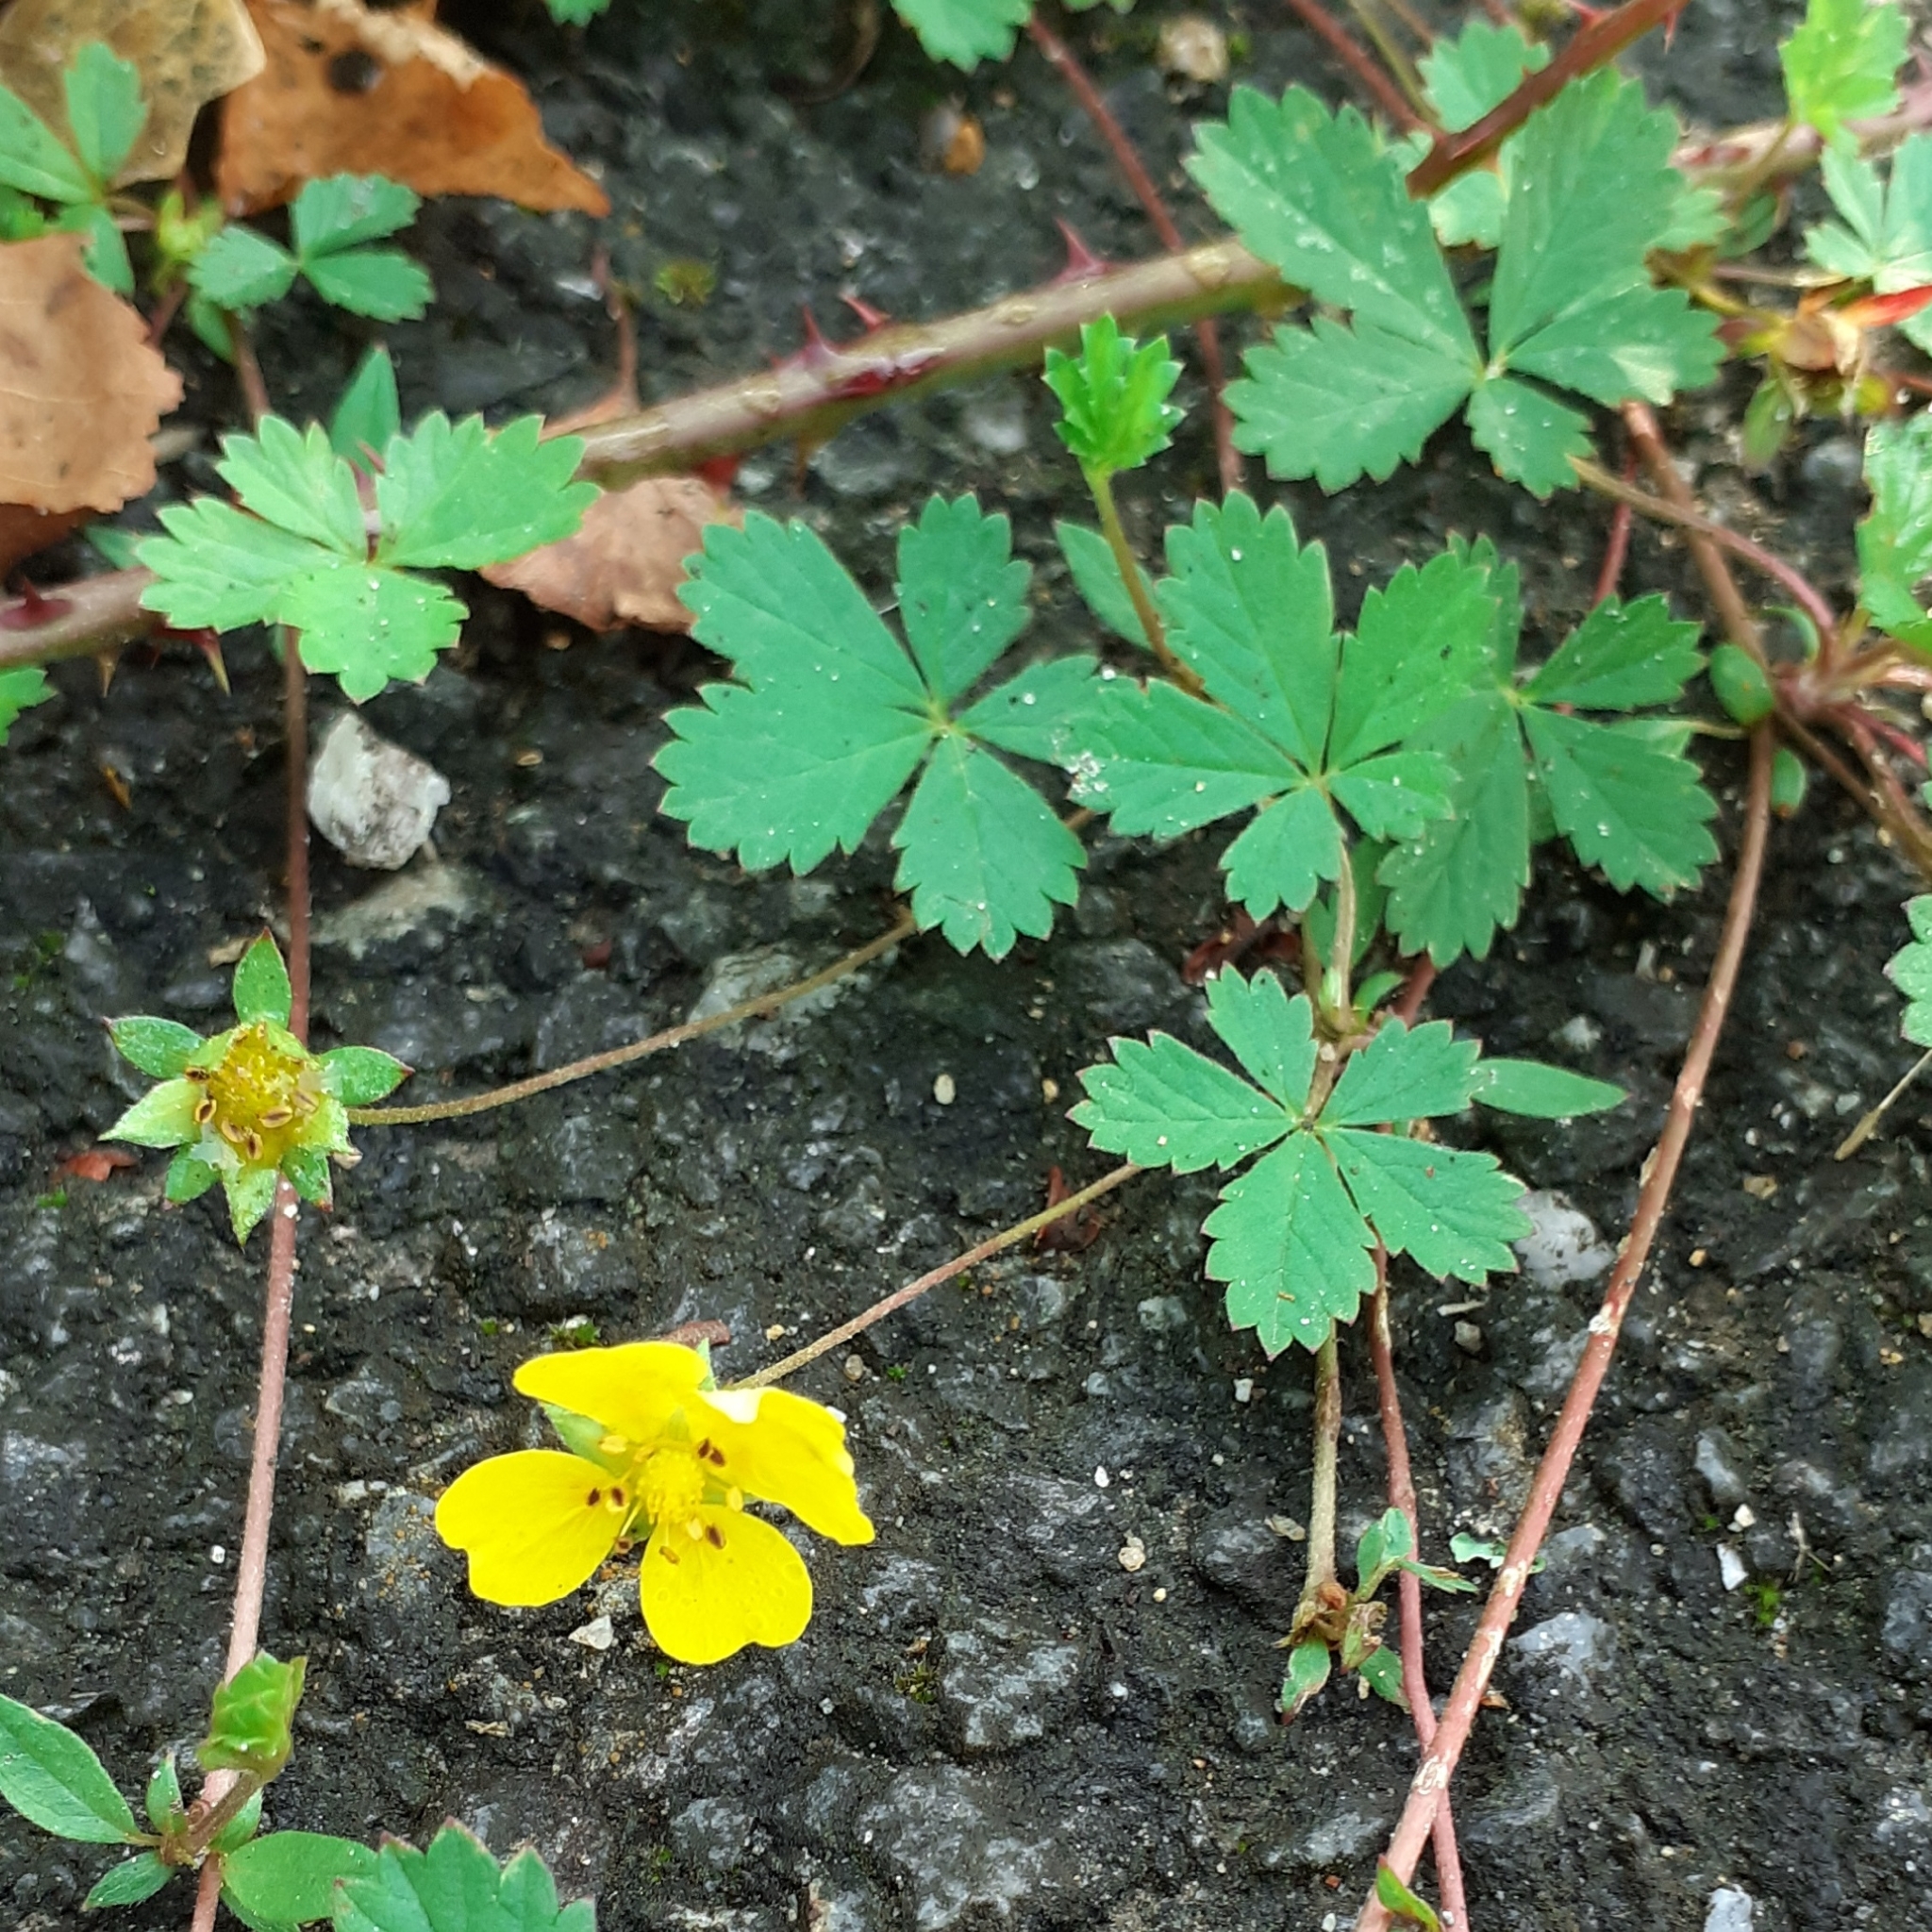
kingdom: Plantae
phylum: Tracheophyta
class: Magnoliopsida
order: Rosales
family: Rosaceae
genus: Potentilla
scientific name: Potentilla reptans
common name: Creeping cinquefoil
